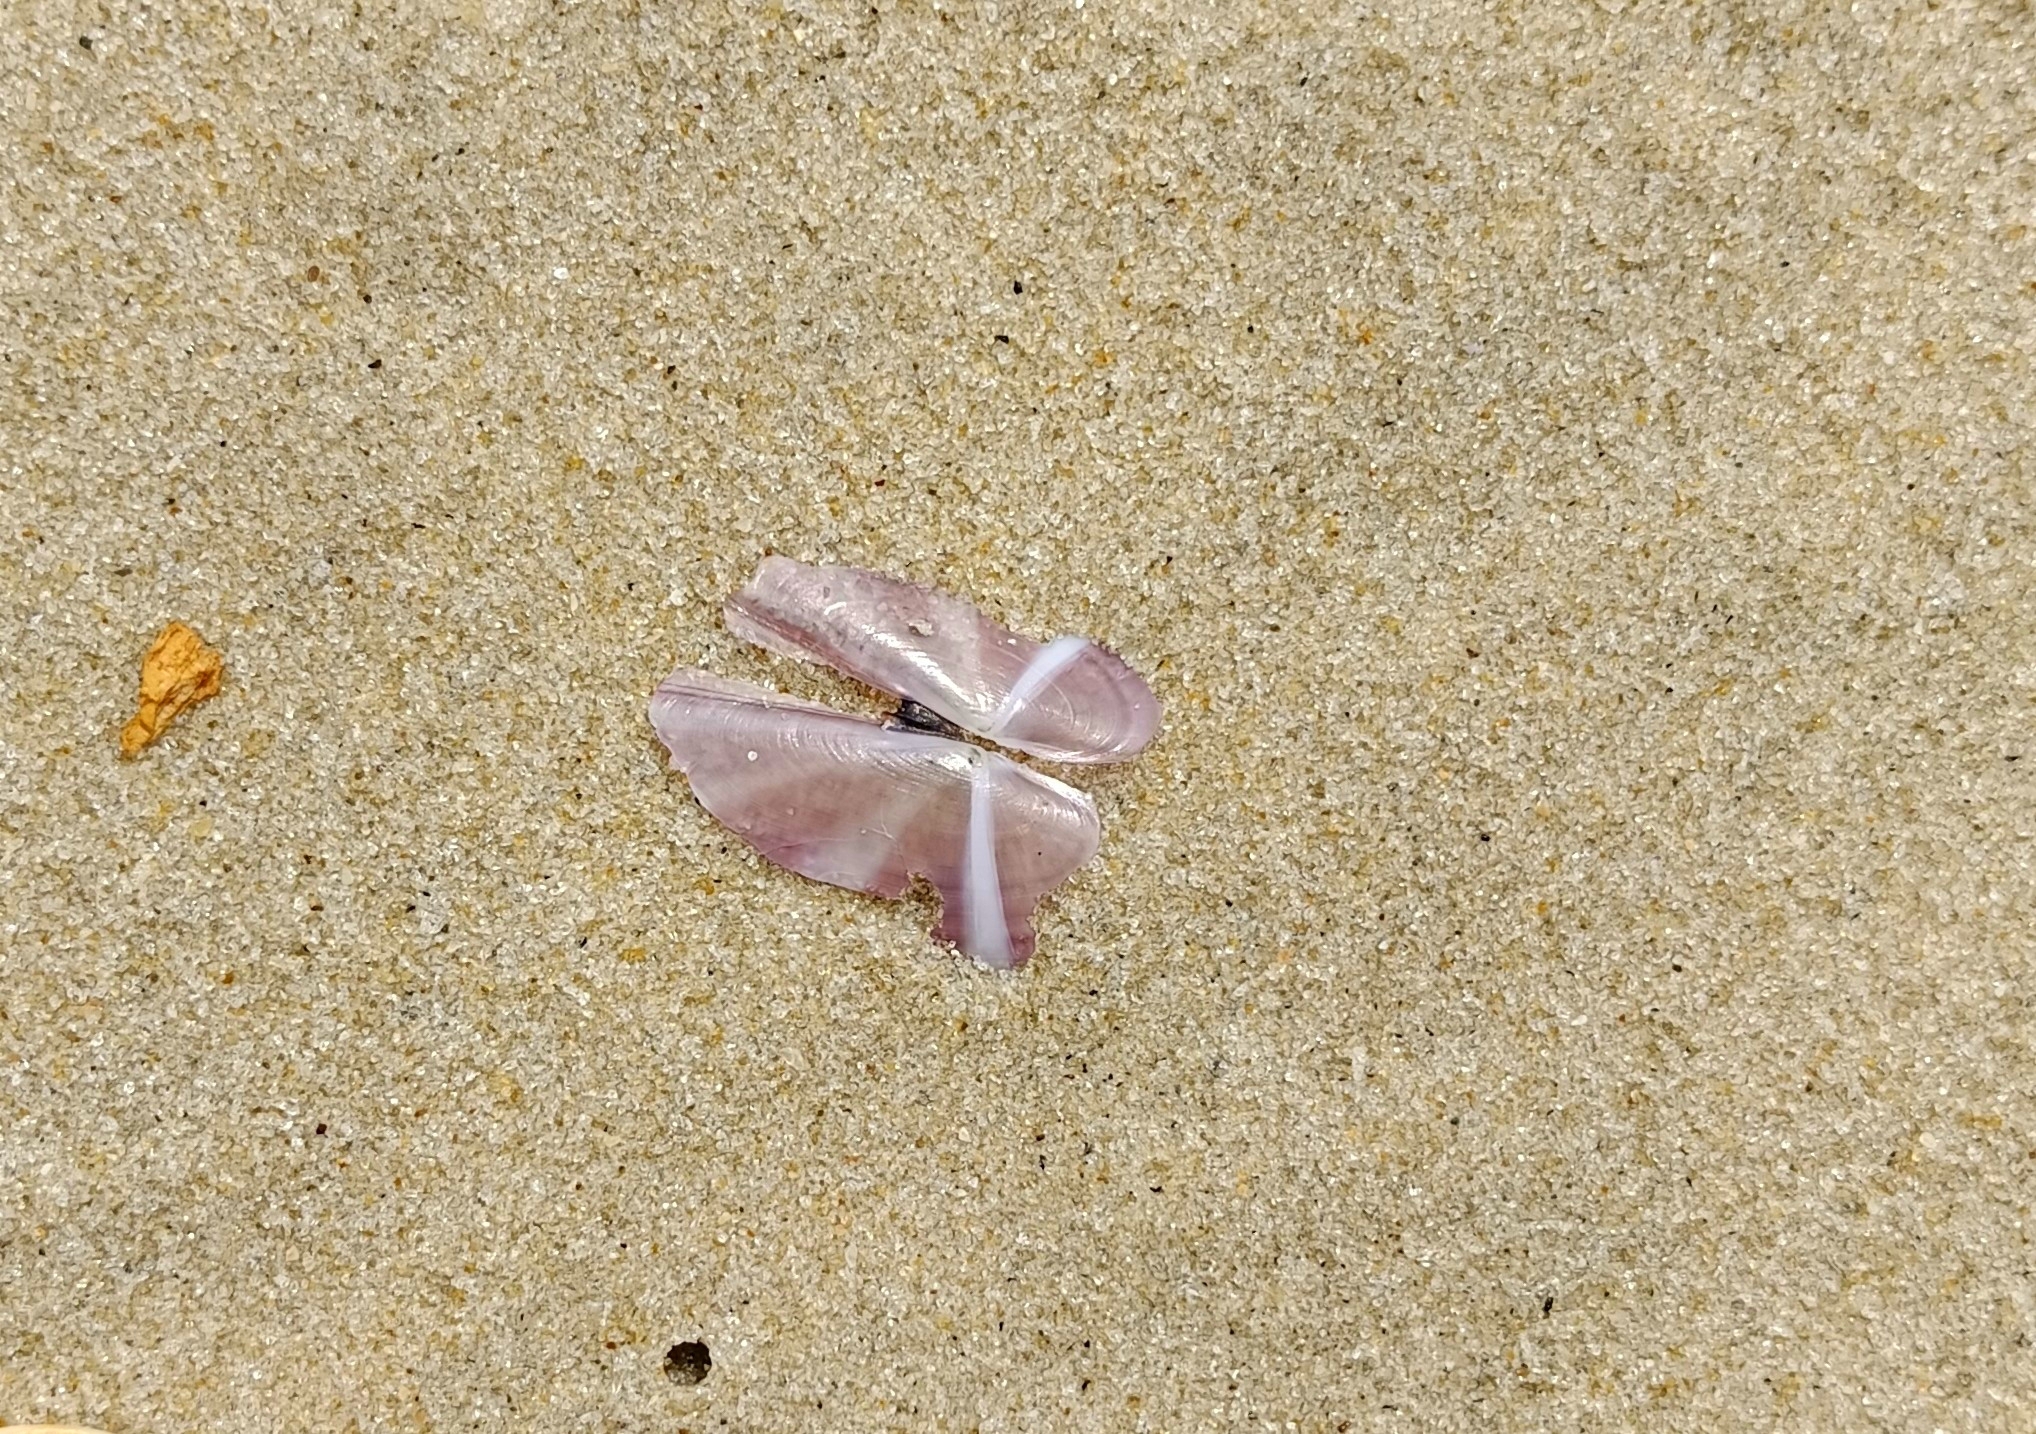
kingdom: Animalia
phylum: Mollusca
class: Bivalvia
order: Adapedonta
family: Pharidae
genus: Siliqua
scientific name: Siliqua radiata
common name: Sunset razor clam
